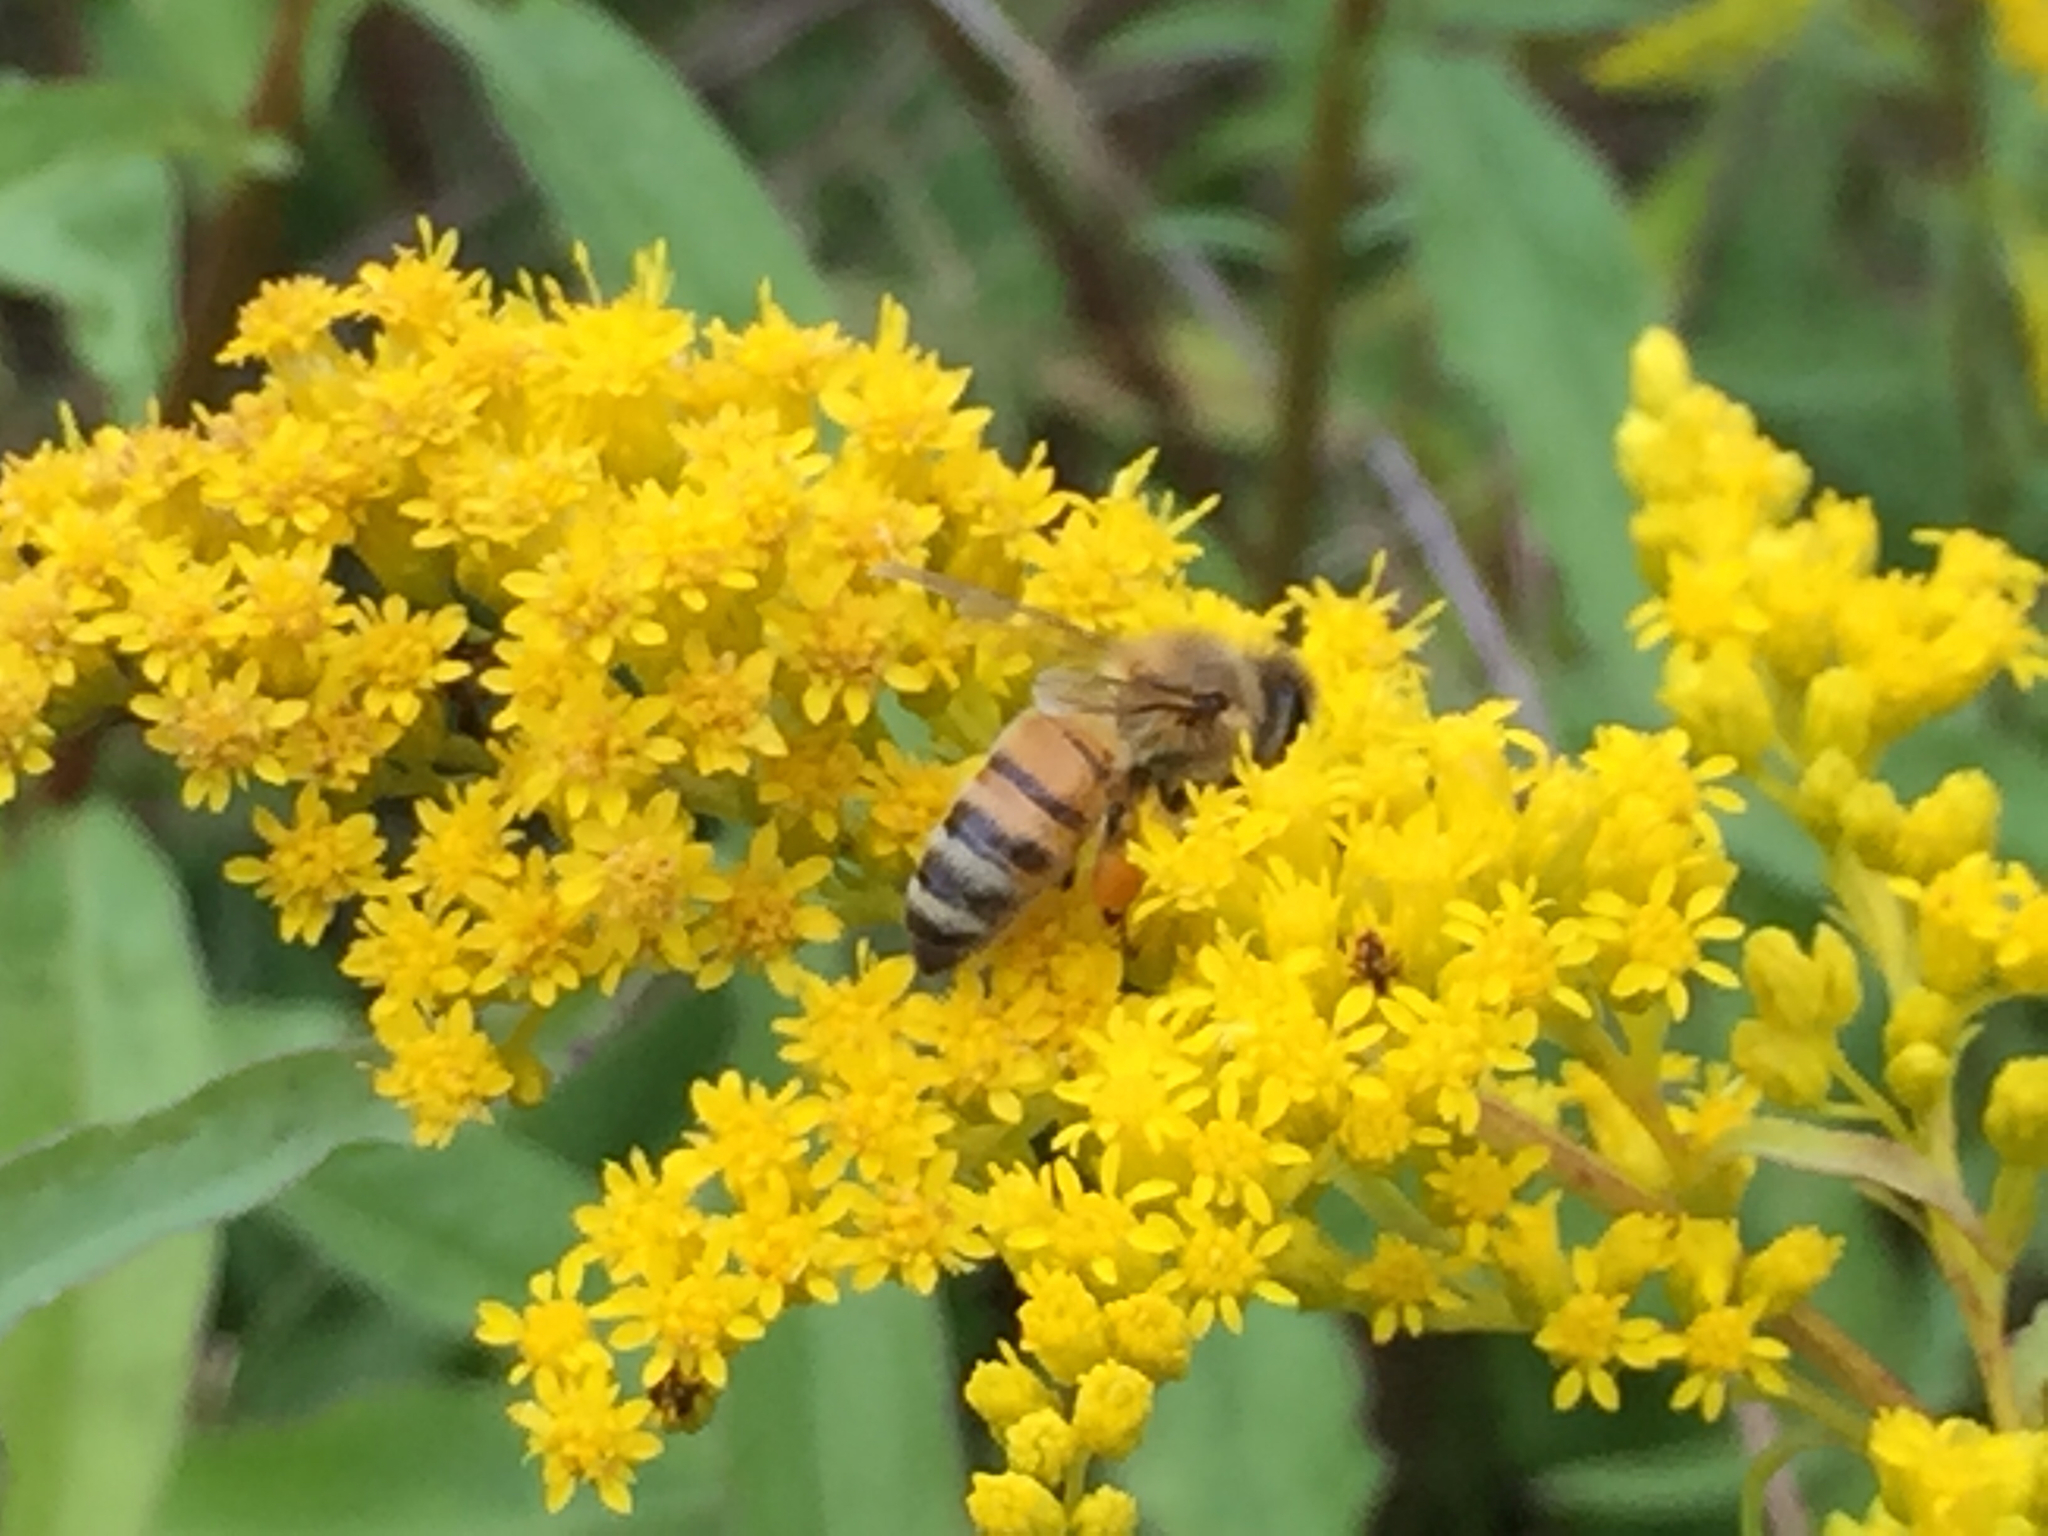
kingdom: Animalia
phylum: Arthropoda
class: Insecta
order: Hymenoptera
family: Apidae
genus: Apis
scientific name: Apis mellifera
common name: Honey bee
